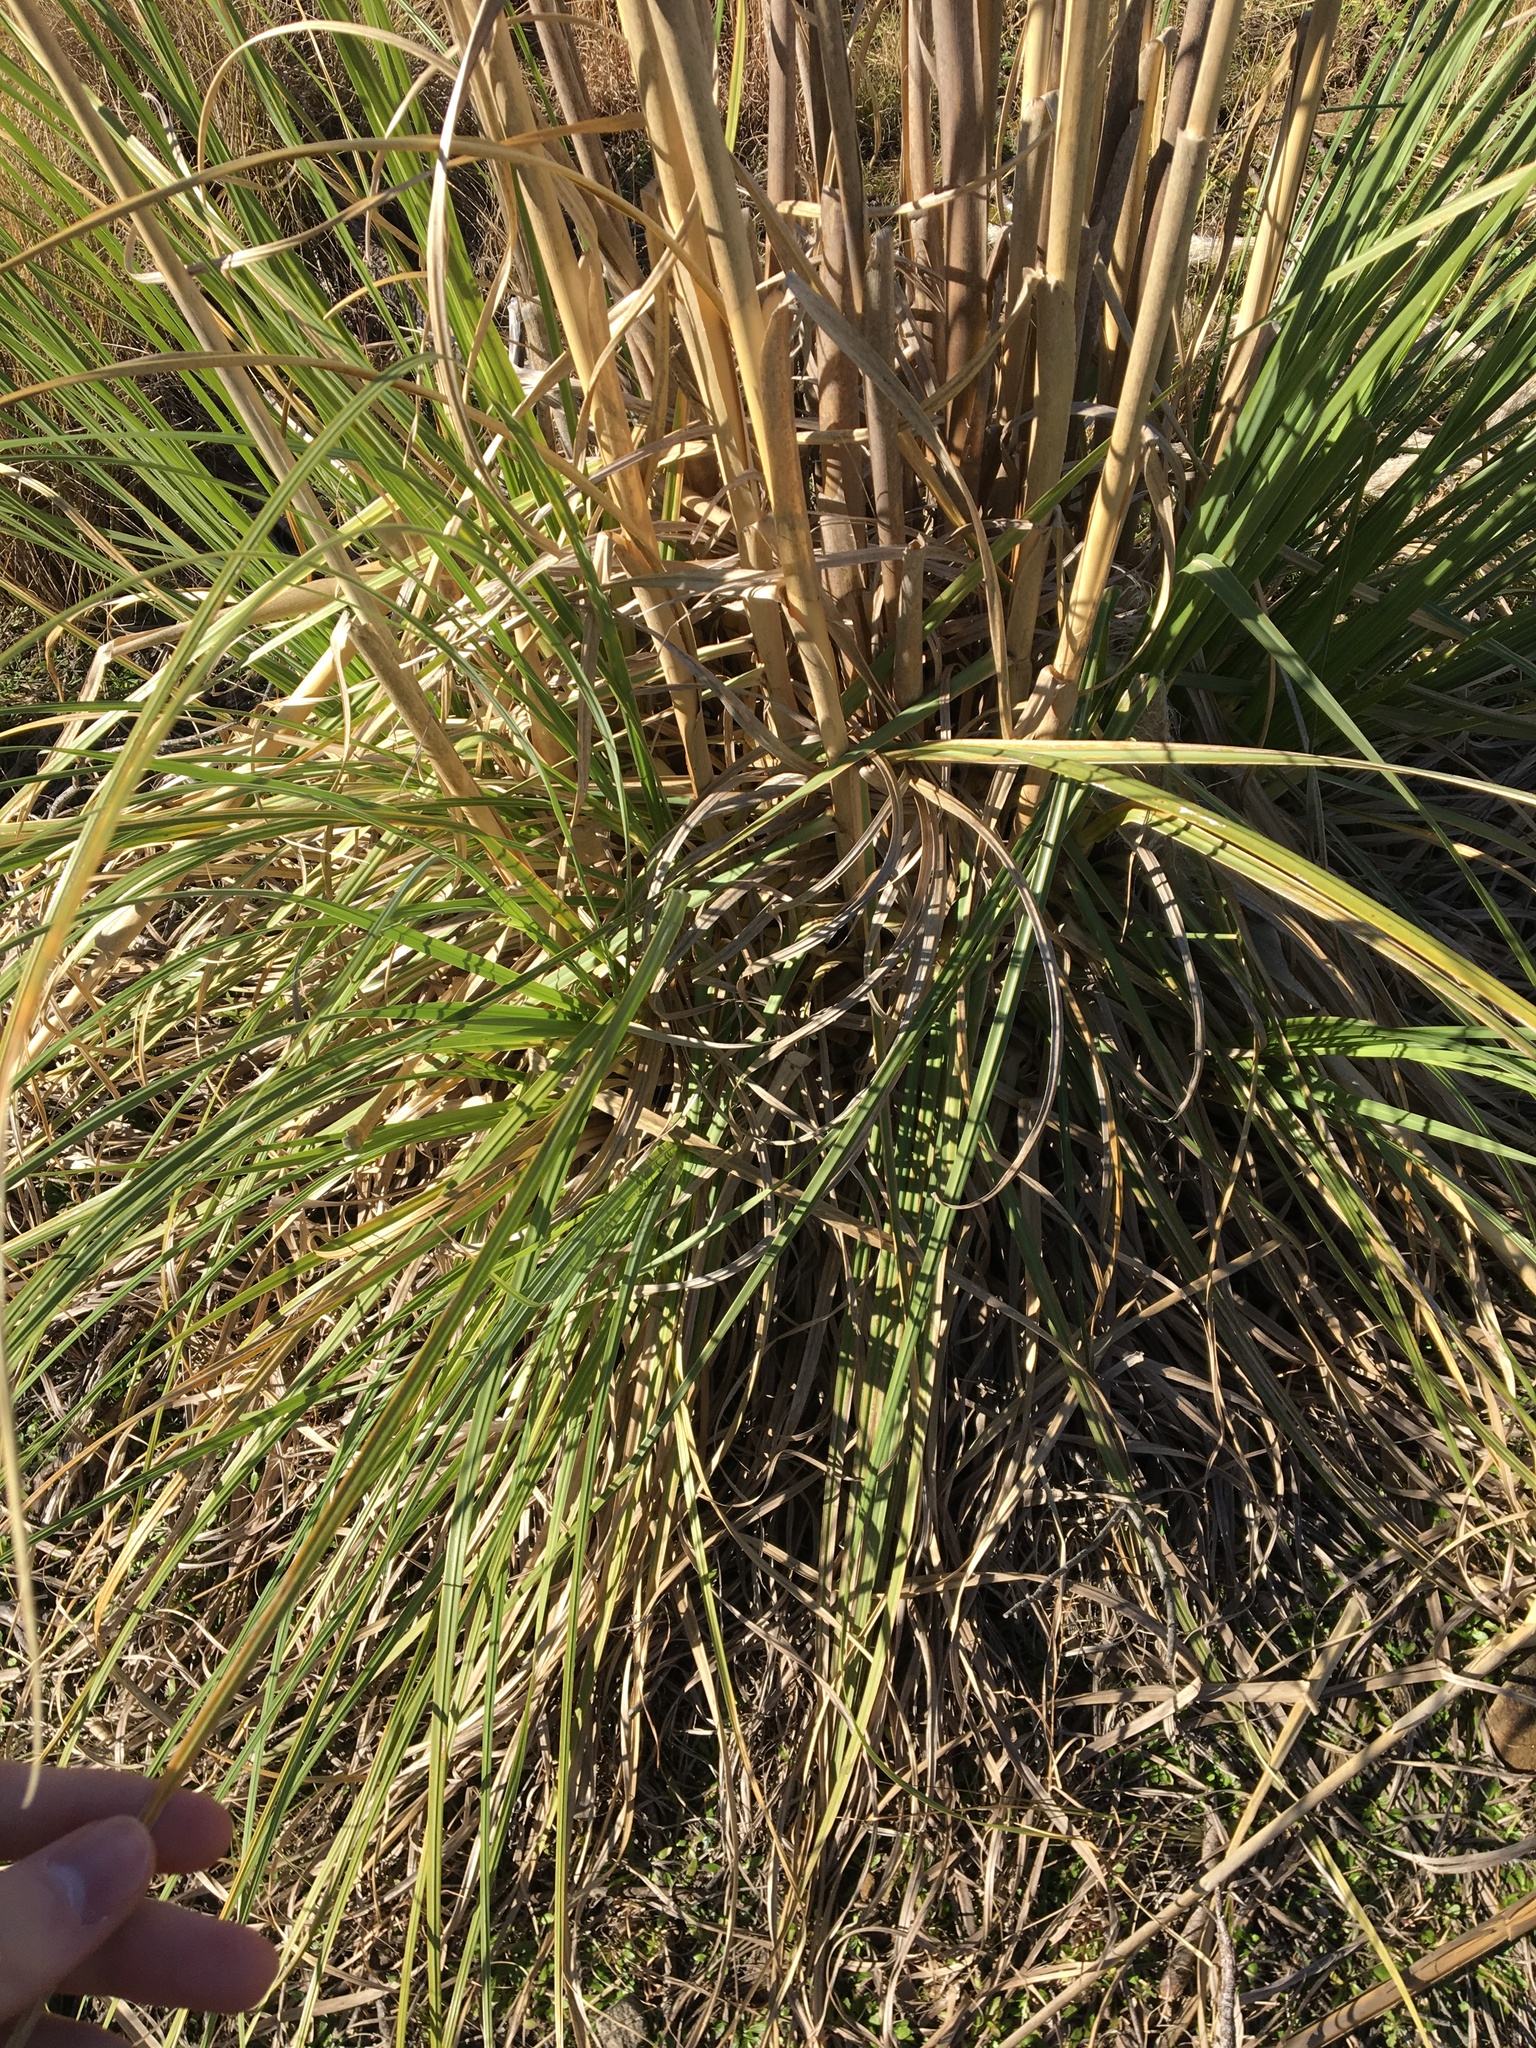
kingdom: Plantae
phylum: Tracheophyta
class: Liliopsida
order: Poales
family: Poaceae
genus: Cortaderia
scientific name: Cortaderia selloana
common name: Uruguayan pampas grass
